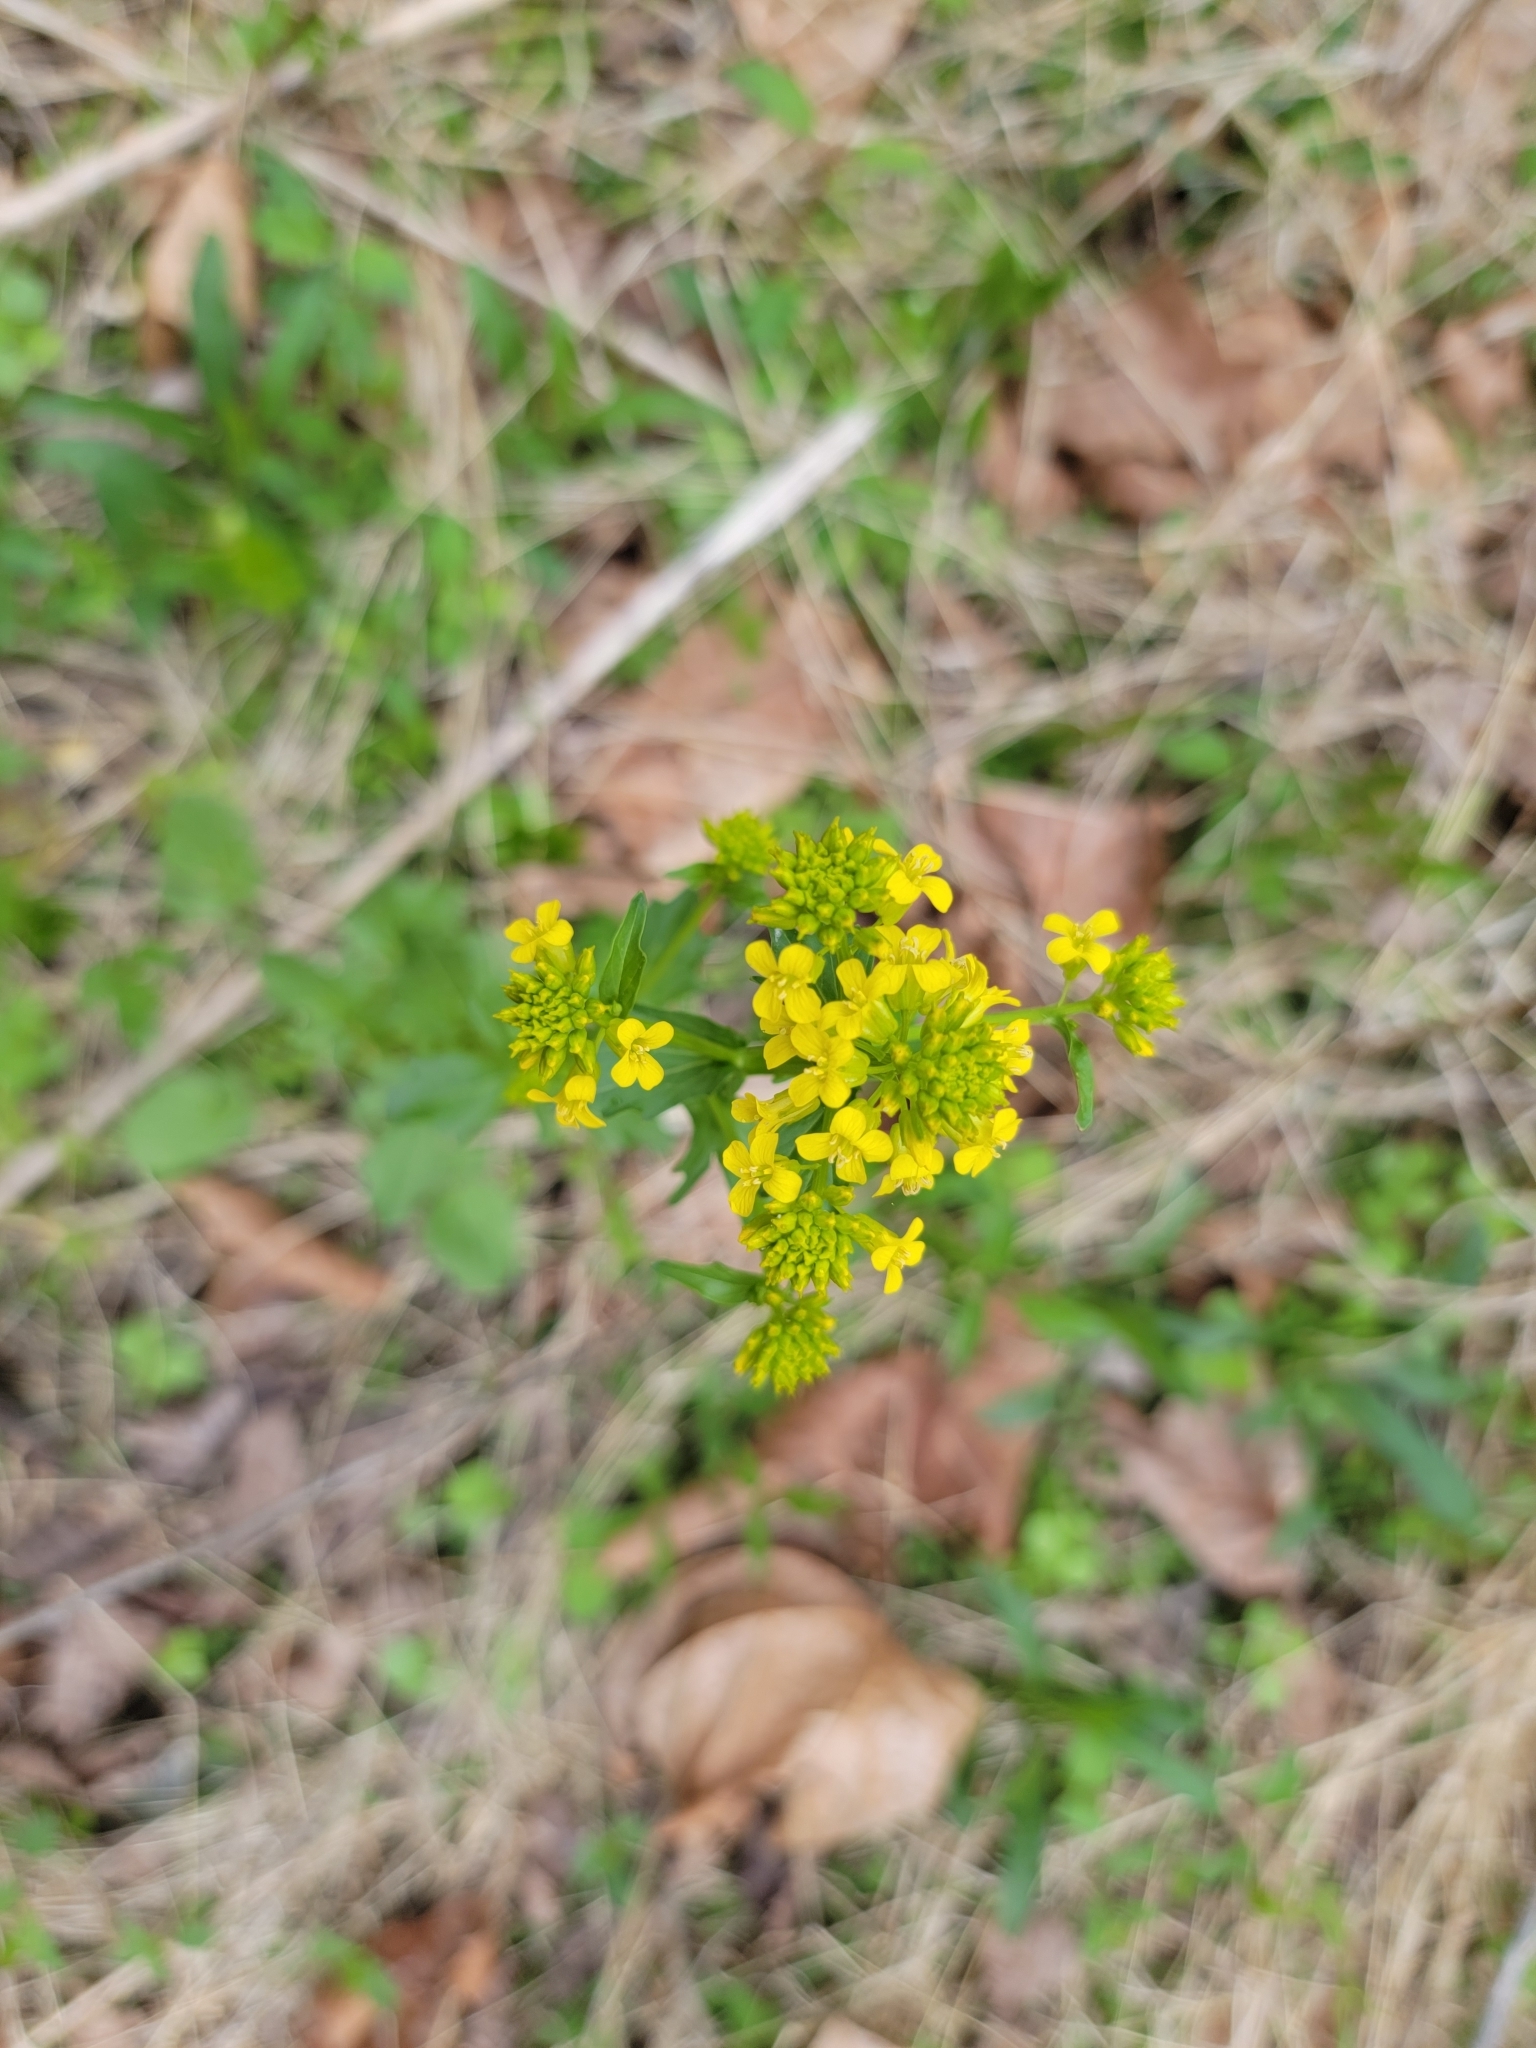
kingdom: Plantae
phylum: Tracheophyta
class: Magnoliopsida
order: Brassicales
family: Brassicaceae
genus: Barbarea
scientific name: Barbarea vulgaris
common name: Cressy-greens
